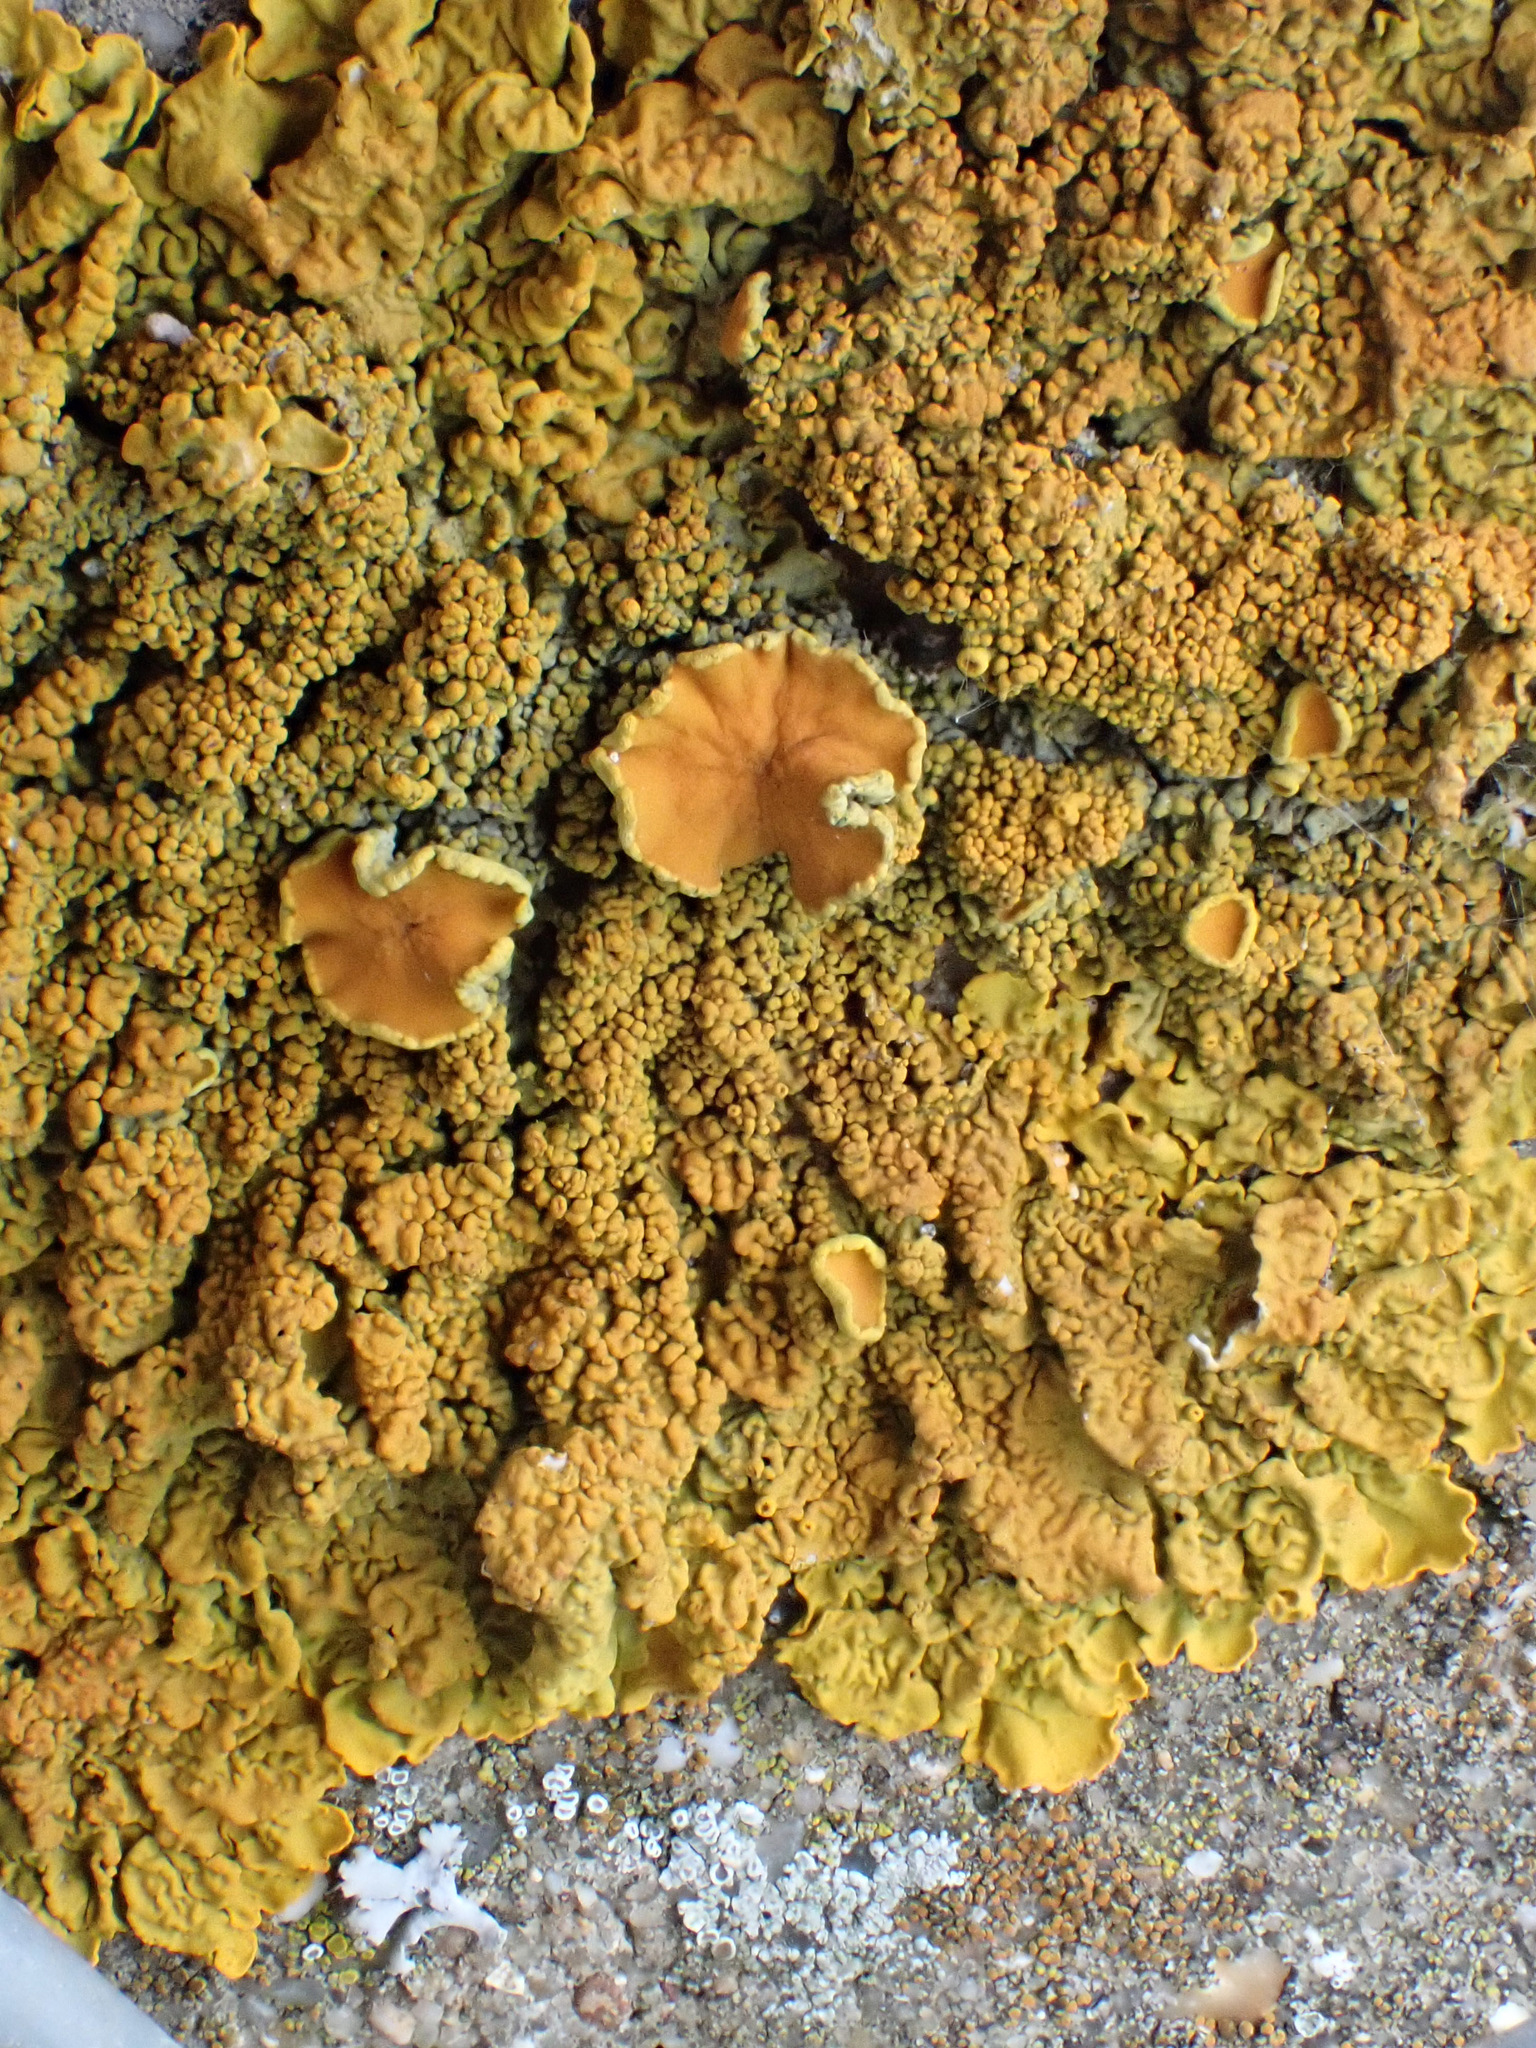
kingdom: Fungi
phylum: Ascomycota
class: Lecanoromycetes
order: Teloschistales
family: Teloschistaceae
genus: Xanthoria
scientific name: Xanthoria calcicola
